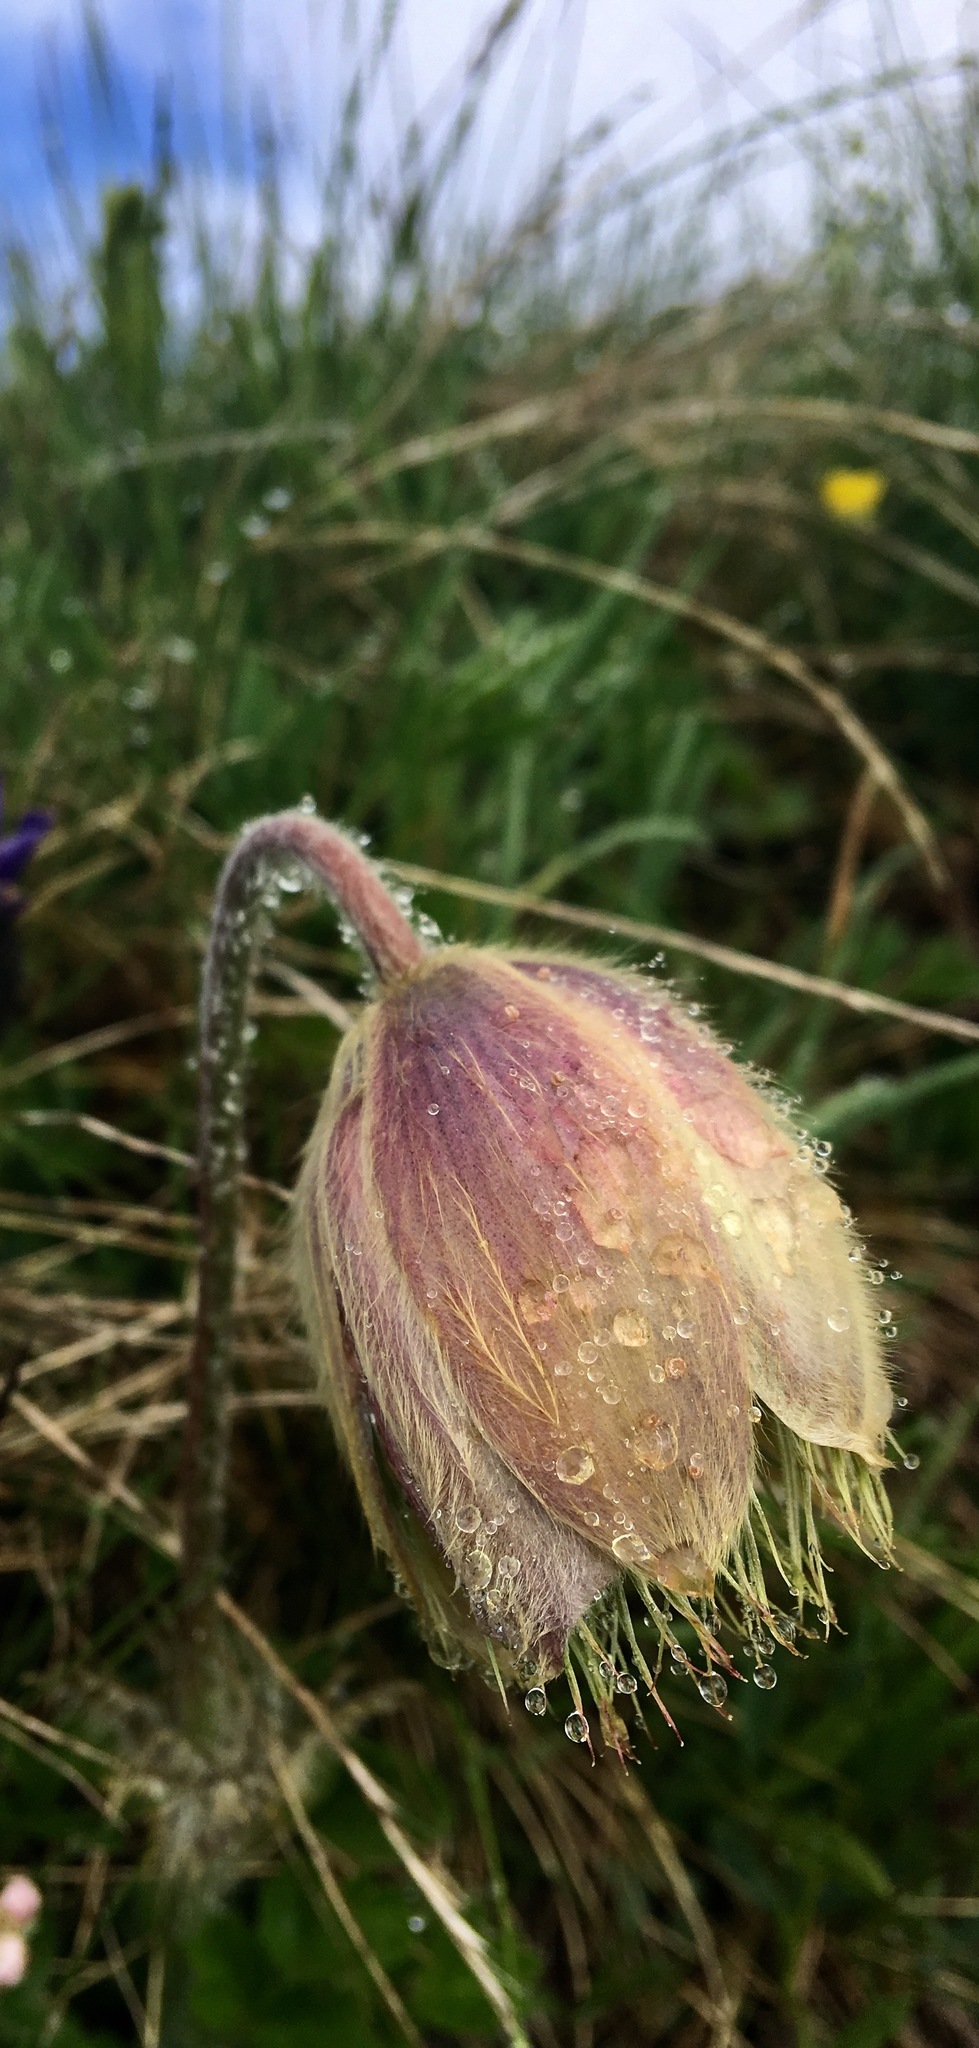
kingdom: Plantae
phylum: Tracheophyta
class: Magnoliopsida
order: Ranunculales
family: Ranunculaceae
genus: Pulsatilla
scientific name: Pulsatilla vernalis
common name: Spring pasque flower
